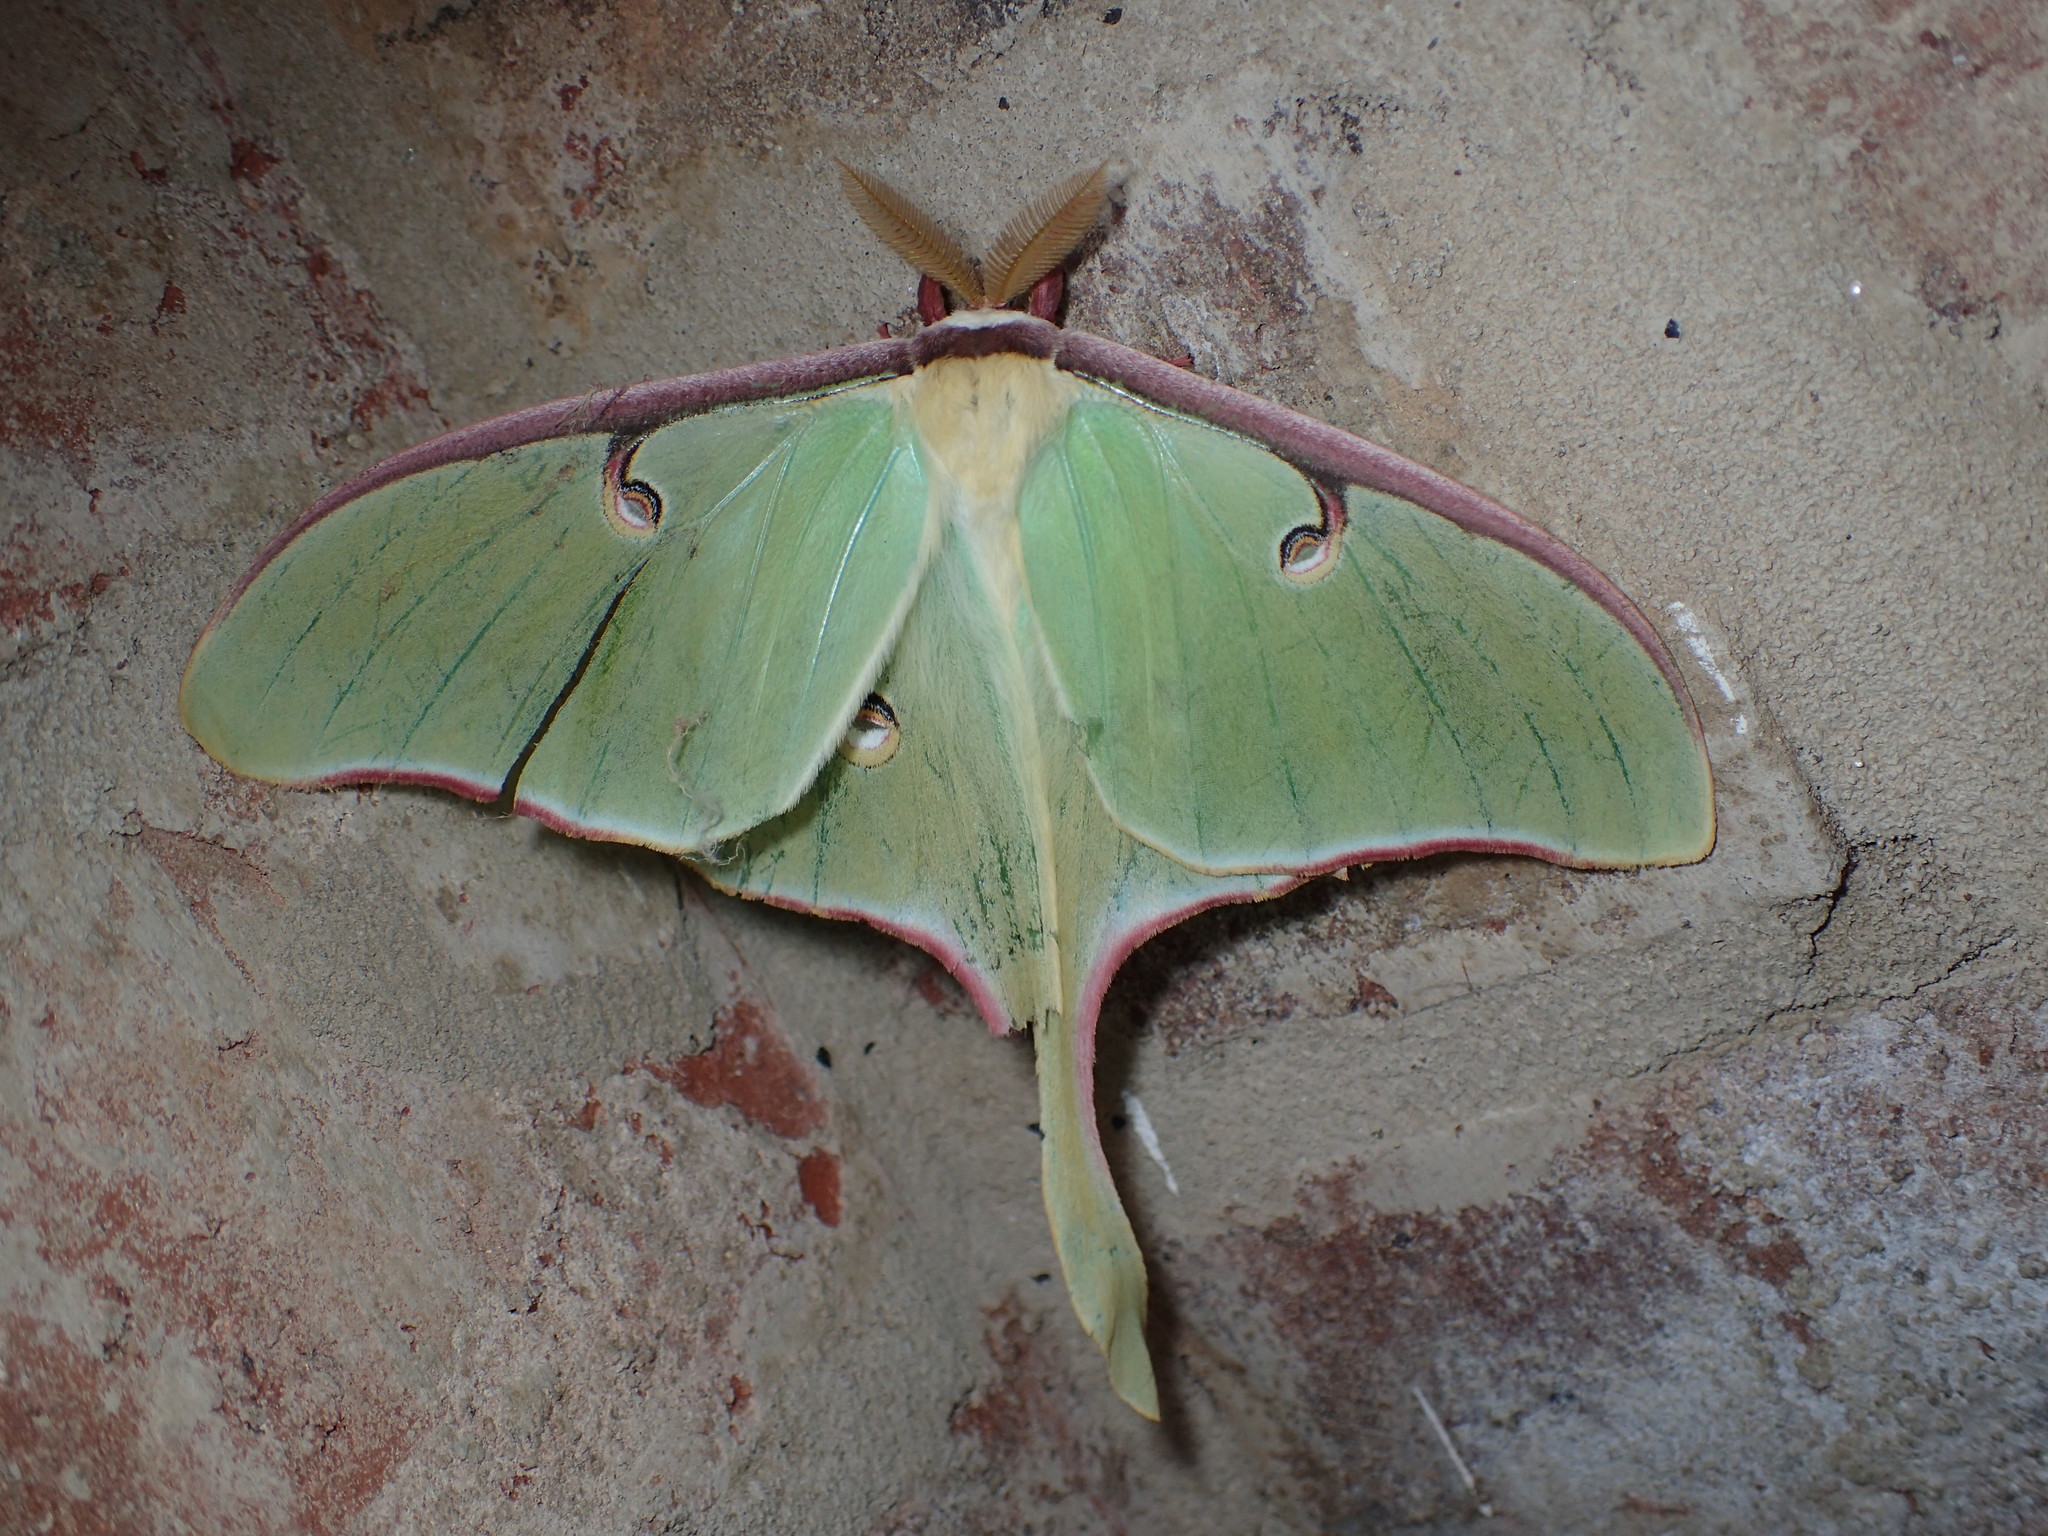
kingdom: Animalia
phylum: Arthropoda
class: Insecta
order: Lepidoptera
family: Saturniidae
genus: Actias
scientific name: Actias luna
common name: Luna moth
